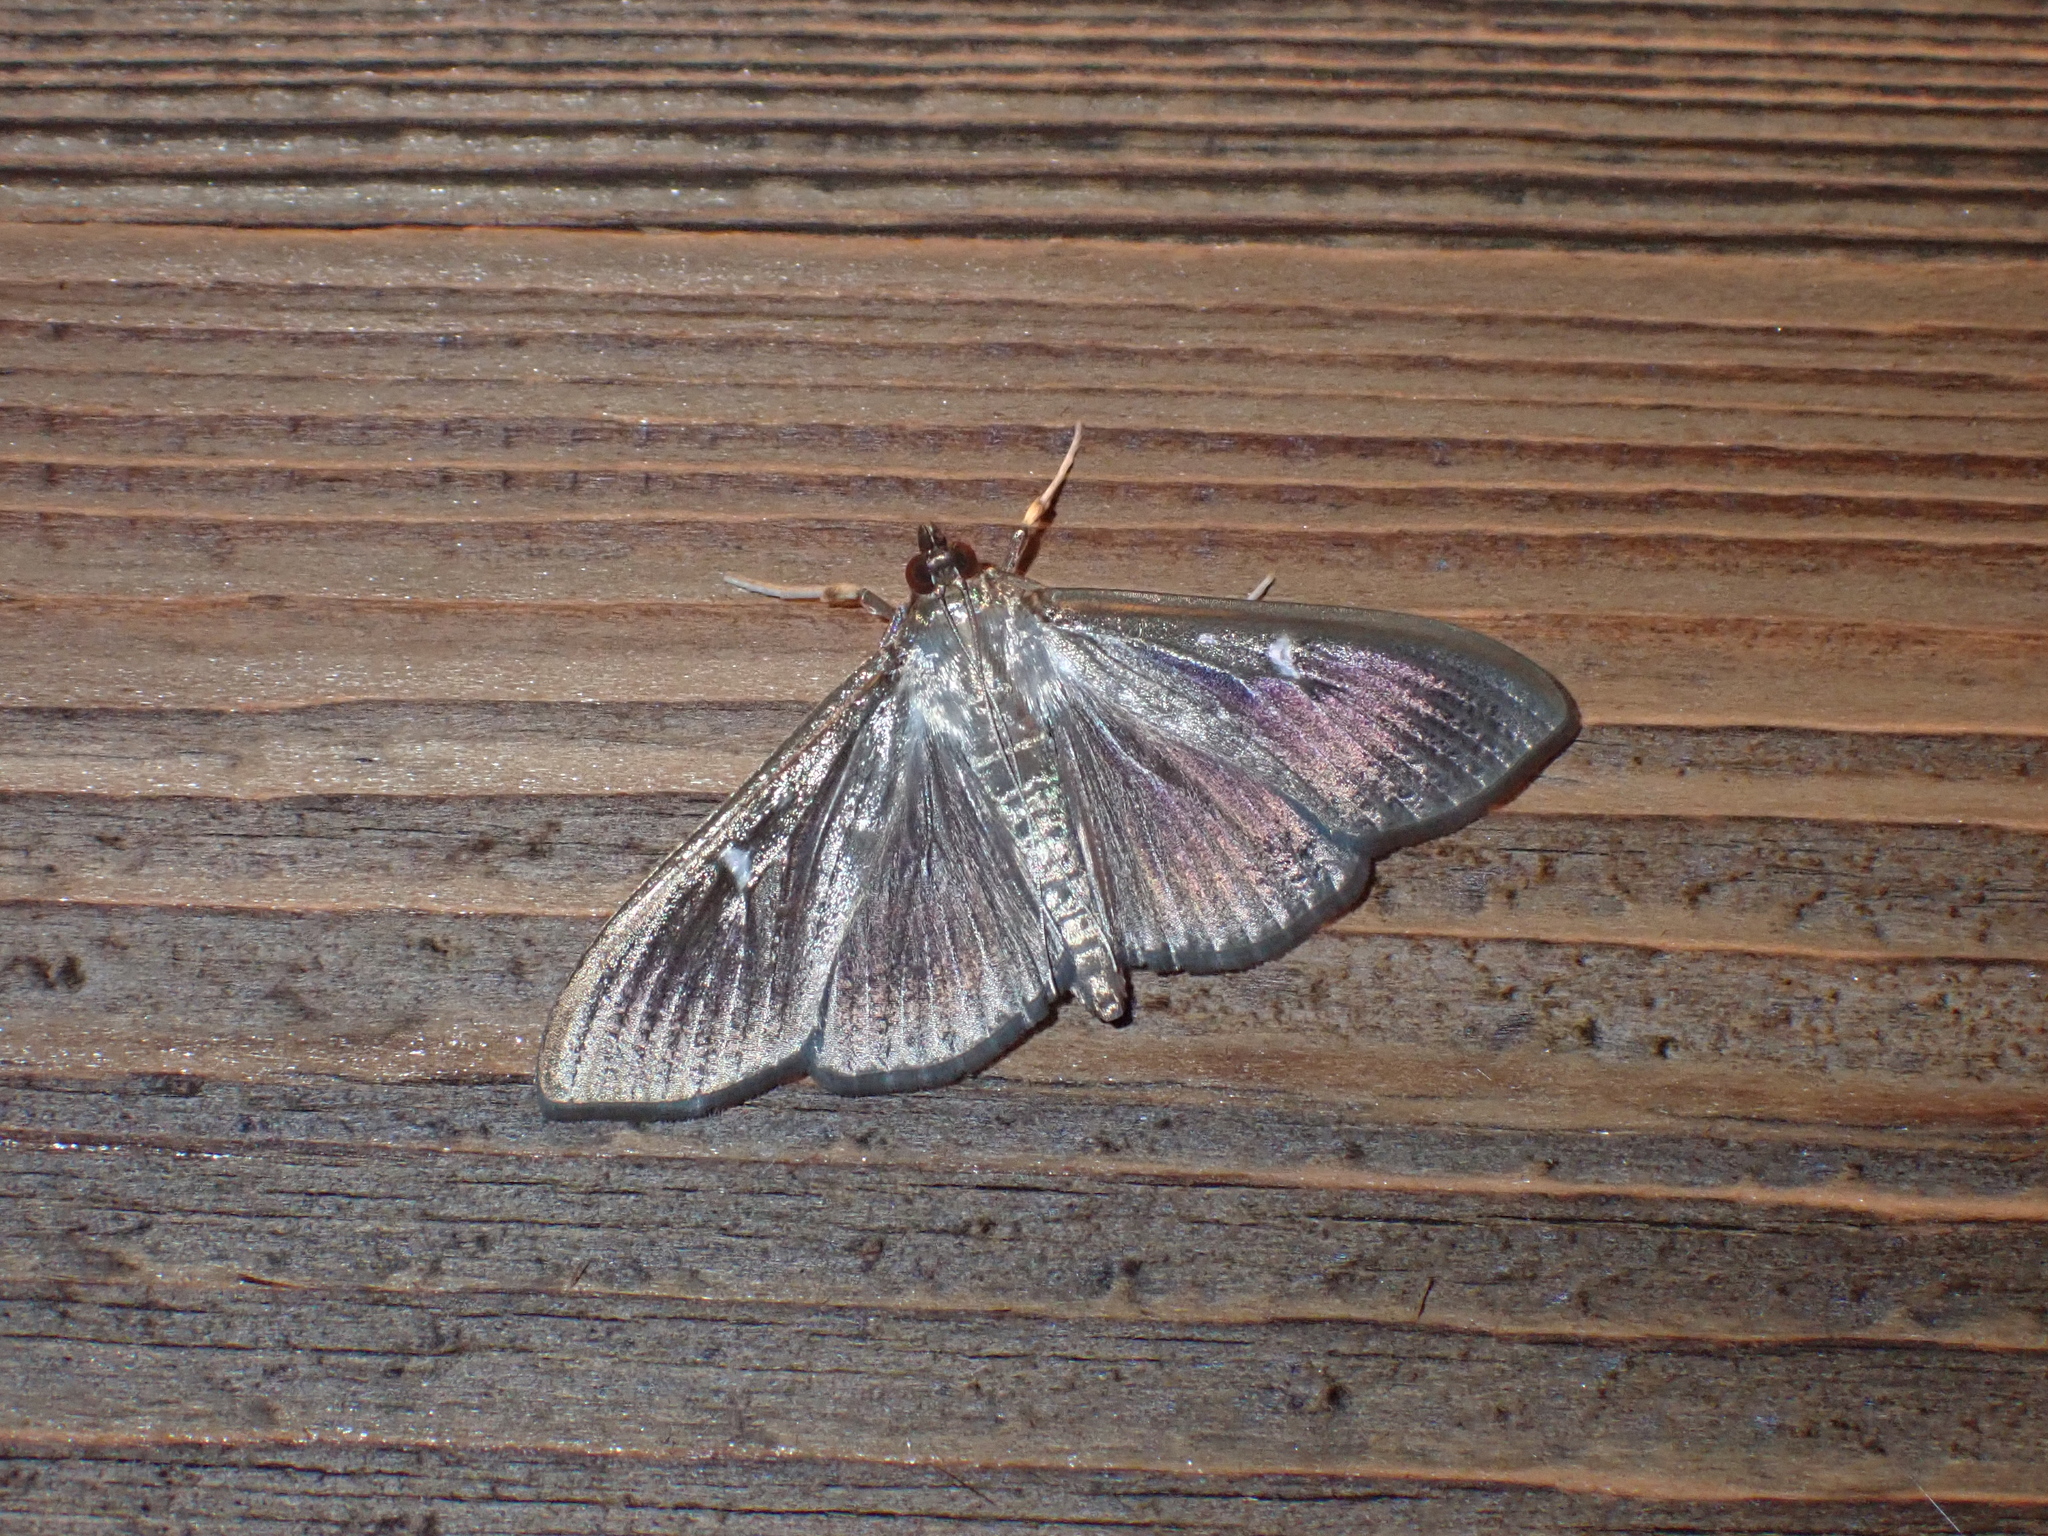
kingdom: Animalia
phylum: Arthropoda
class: Insecta
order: Lepidoptera
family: Crambidae
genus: Cydalima
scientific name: Cydalima perspectalis
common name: Box tree moth
